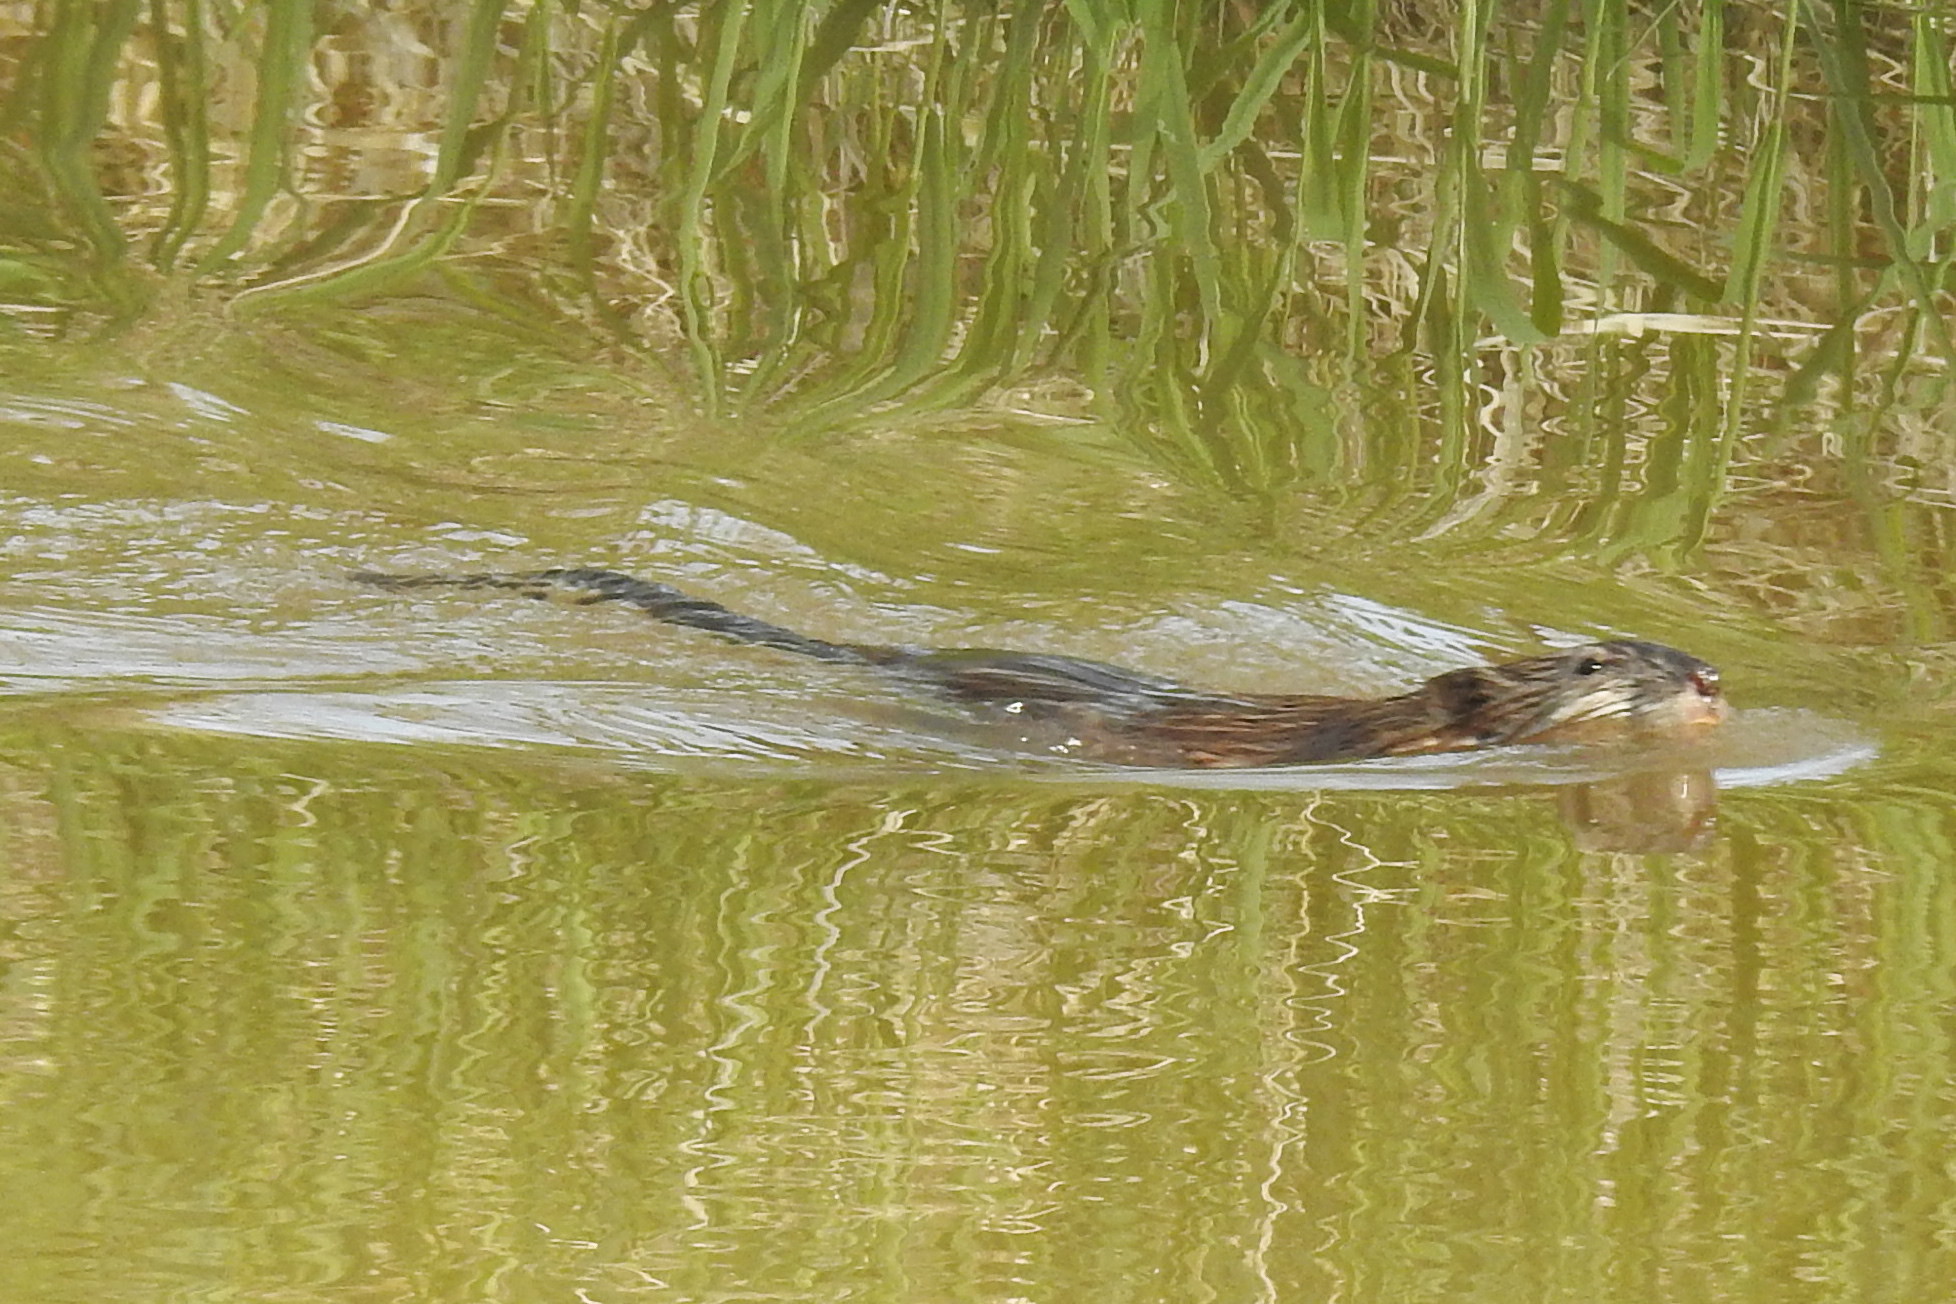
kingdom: Animalia
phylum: Chordata
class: Mammalia
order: Rodentia
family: Cricetidae
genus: Ondatra
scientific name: Ondatra zibethicus
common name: Muskrat
